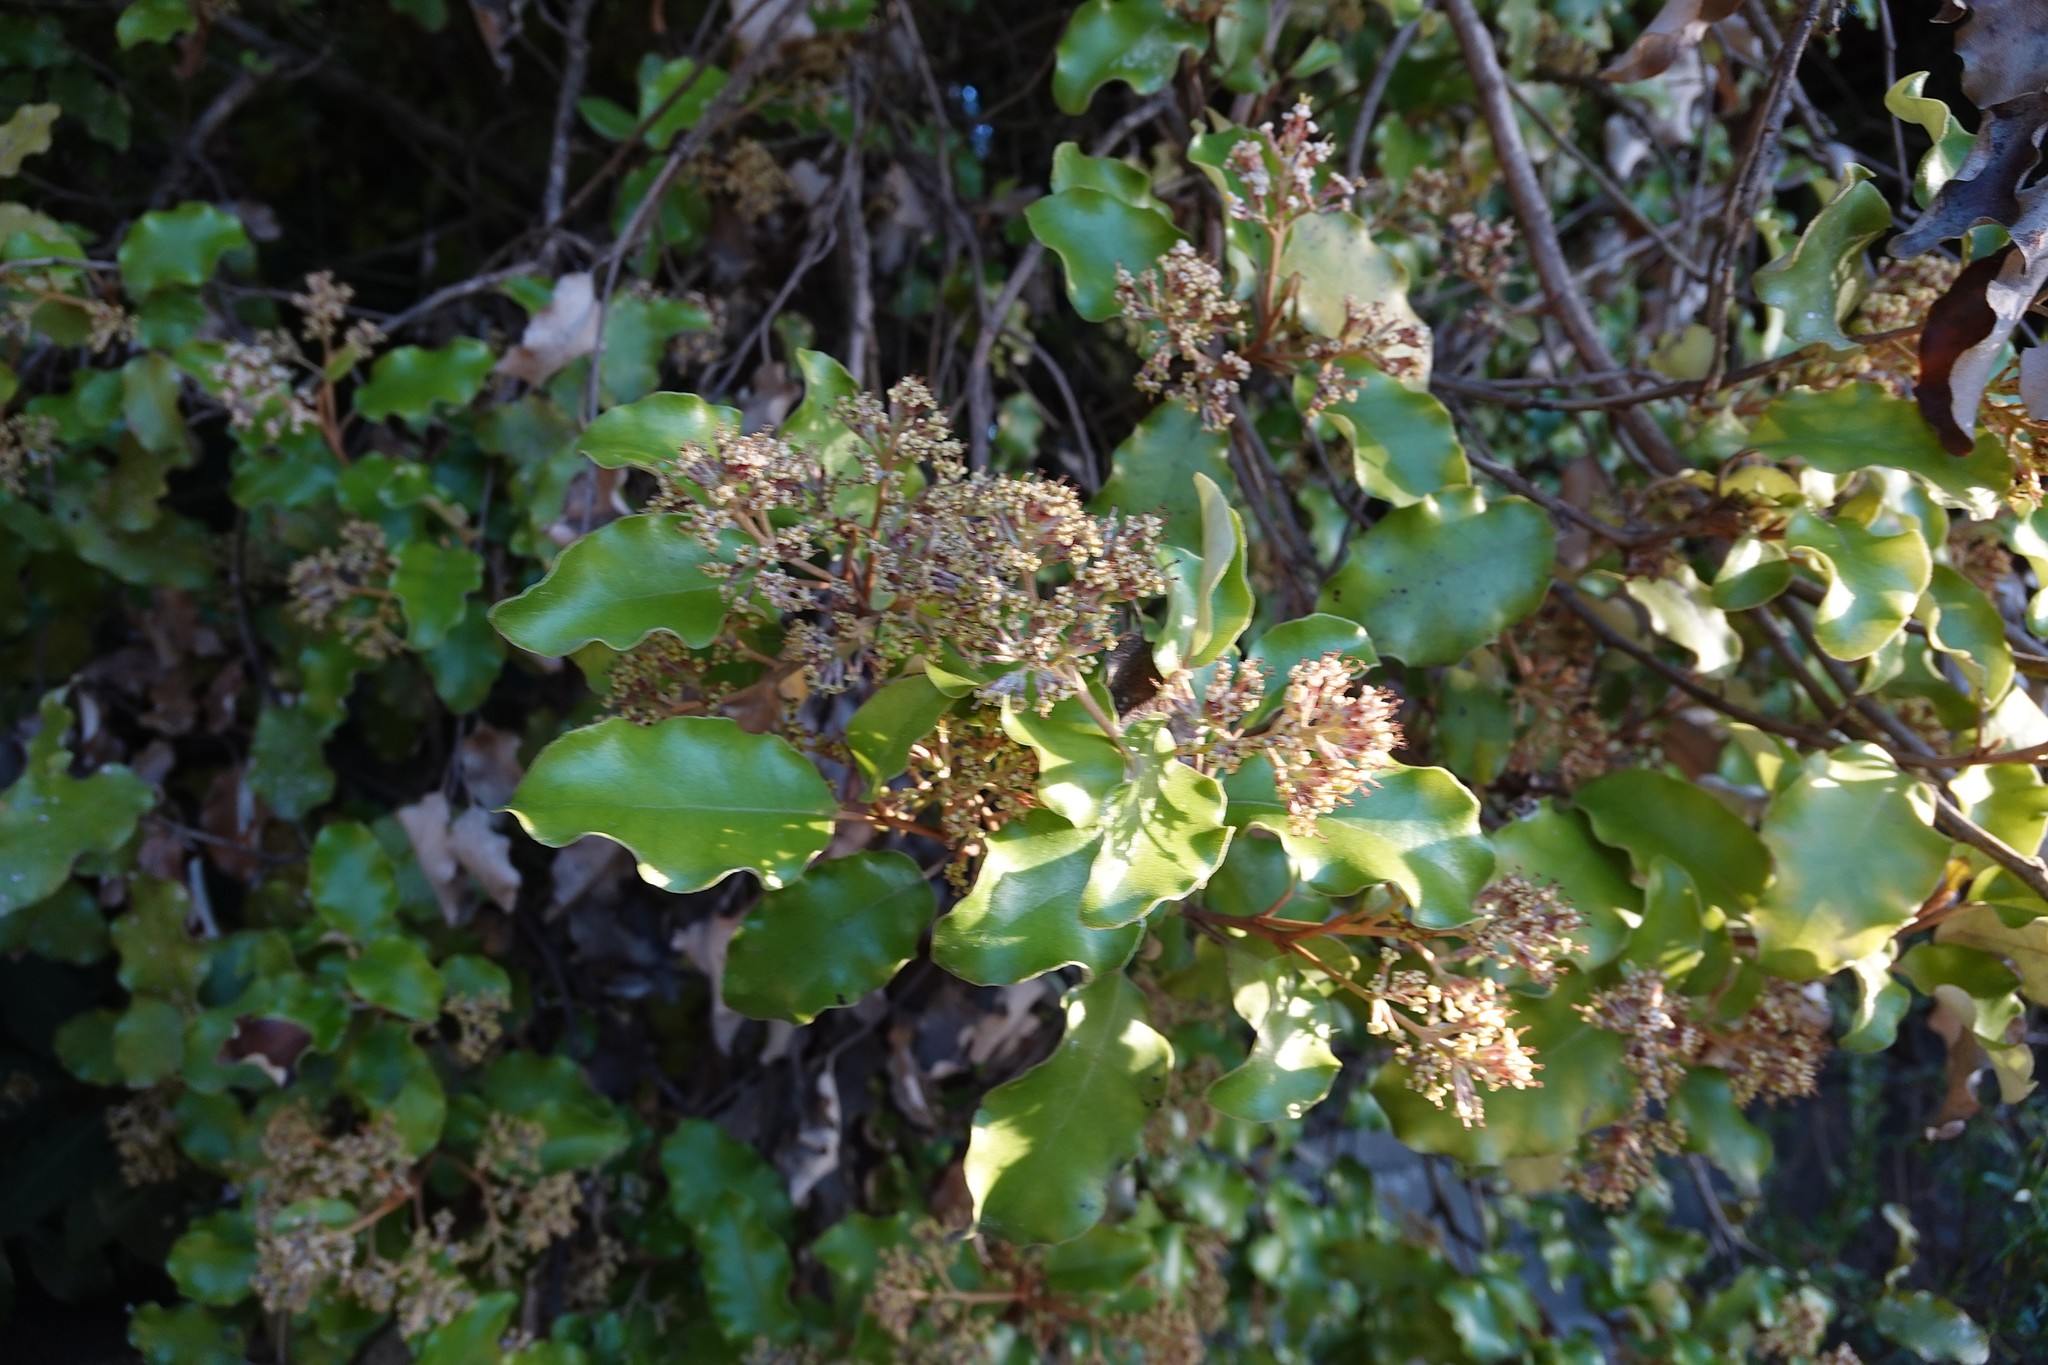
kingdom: Plantae
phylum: Tracheophyta
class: Magnoliopsida
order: Asterales
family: Asteraceae
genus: Olearia
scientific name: Olearia paniculata
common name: Akiraho
